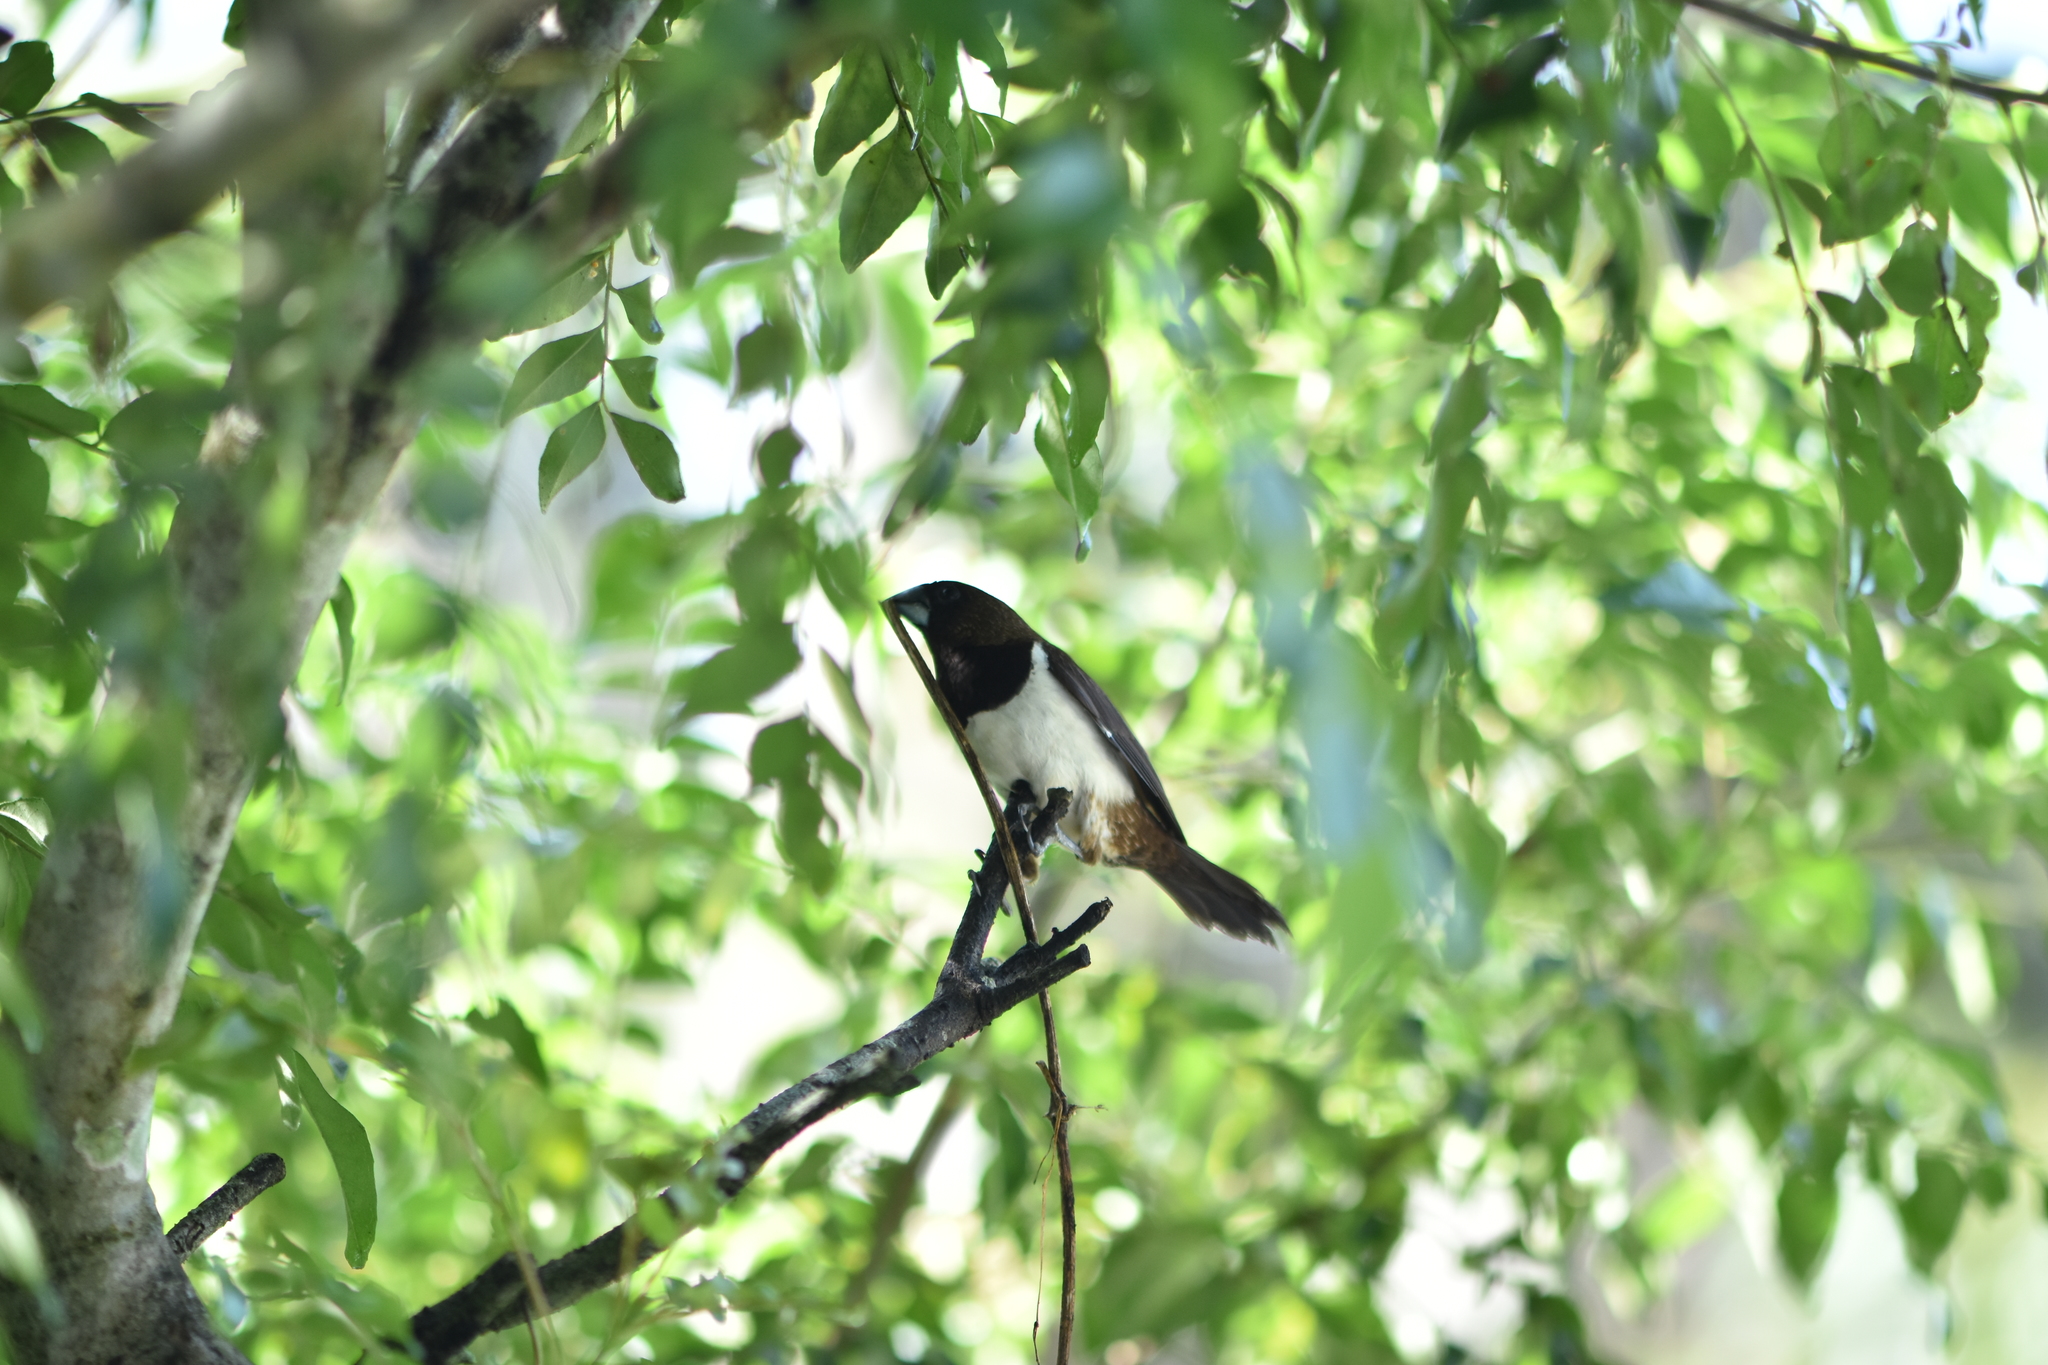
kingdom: Animalia
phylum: Chordata
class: Aves
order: Passeriformes
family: Estrildidae
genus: Lonchura
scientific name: Lonchura striata
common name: White-rumped munia
